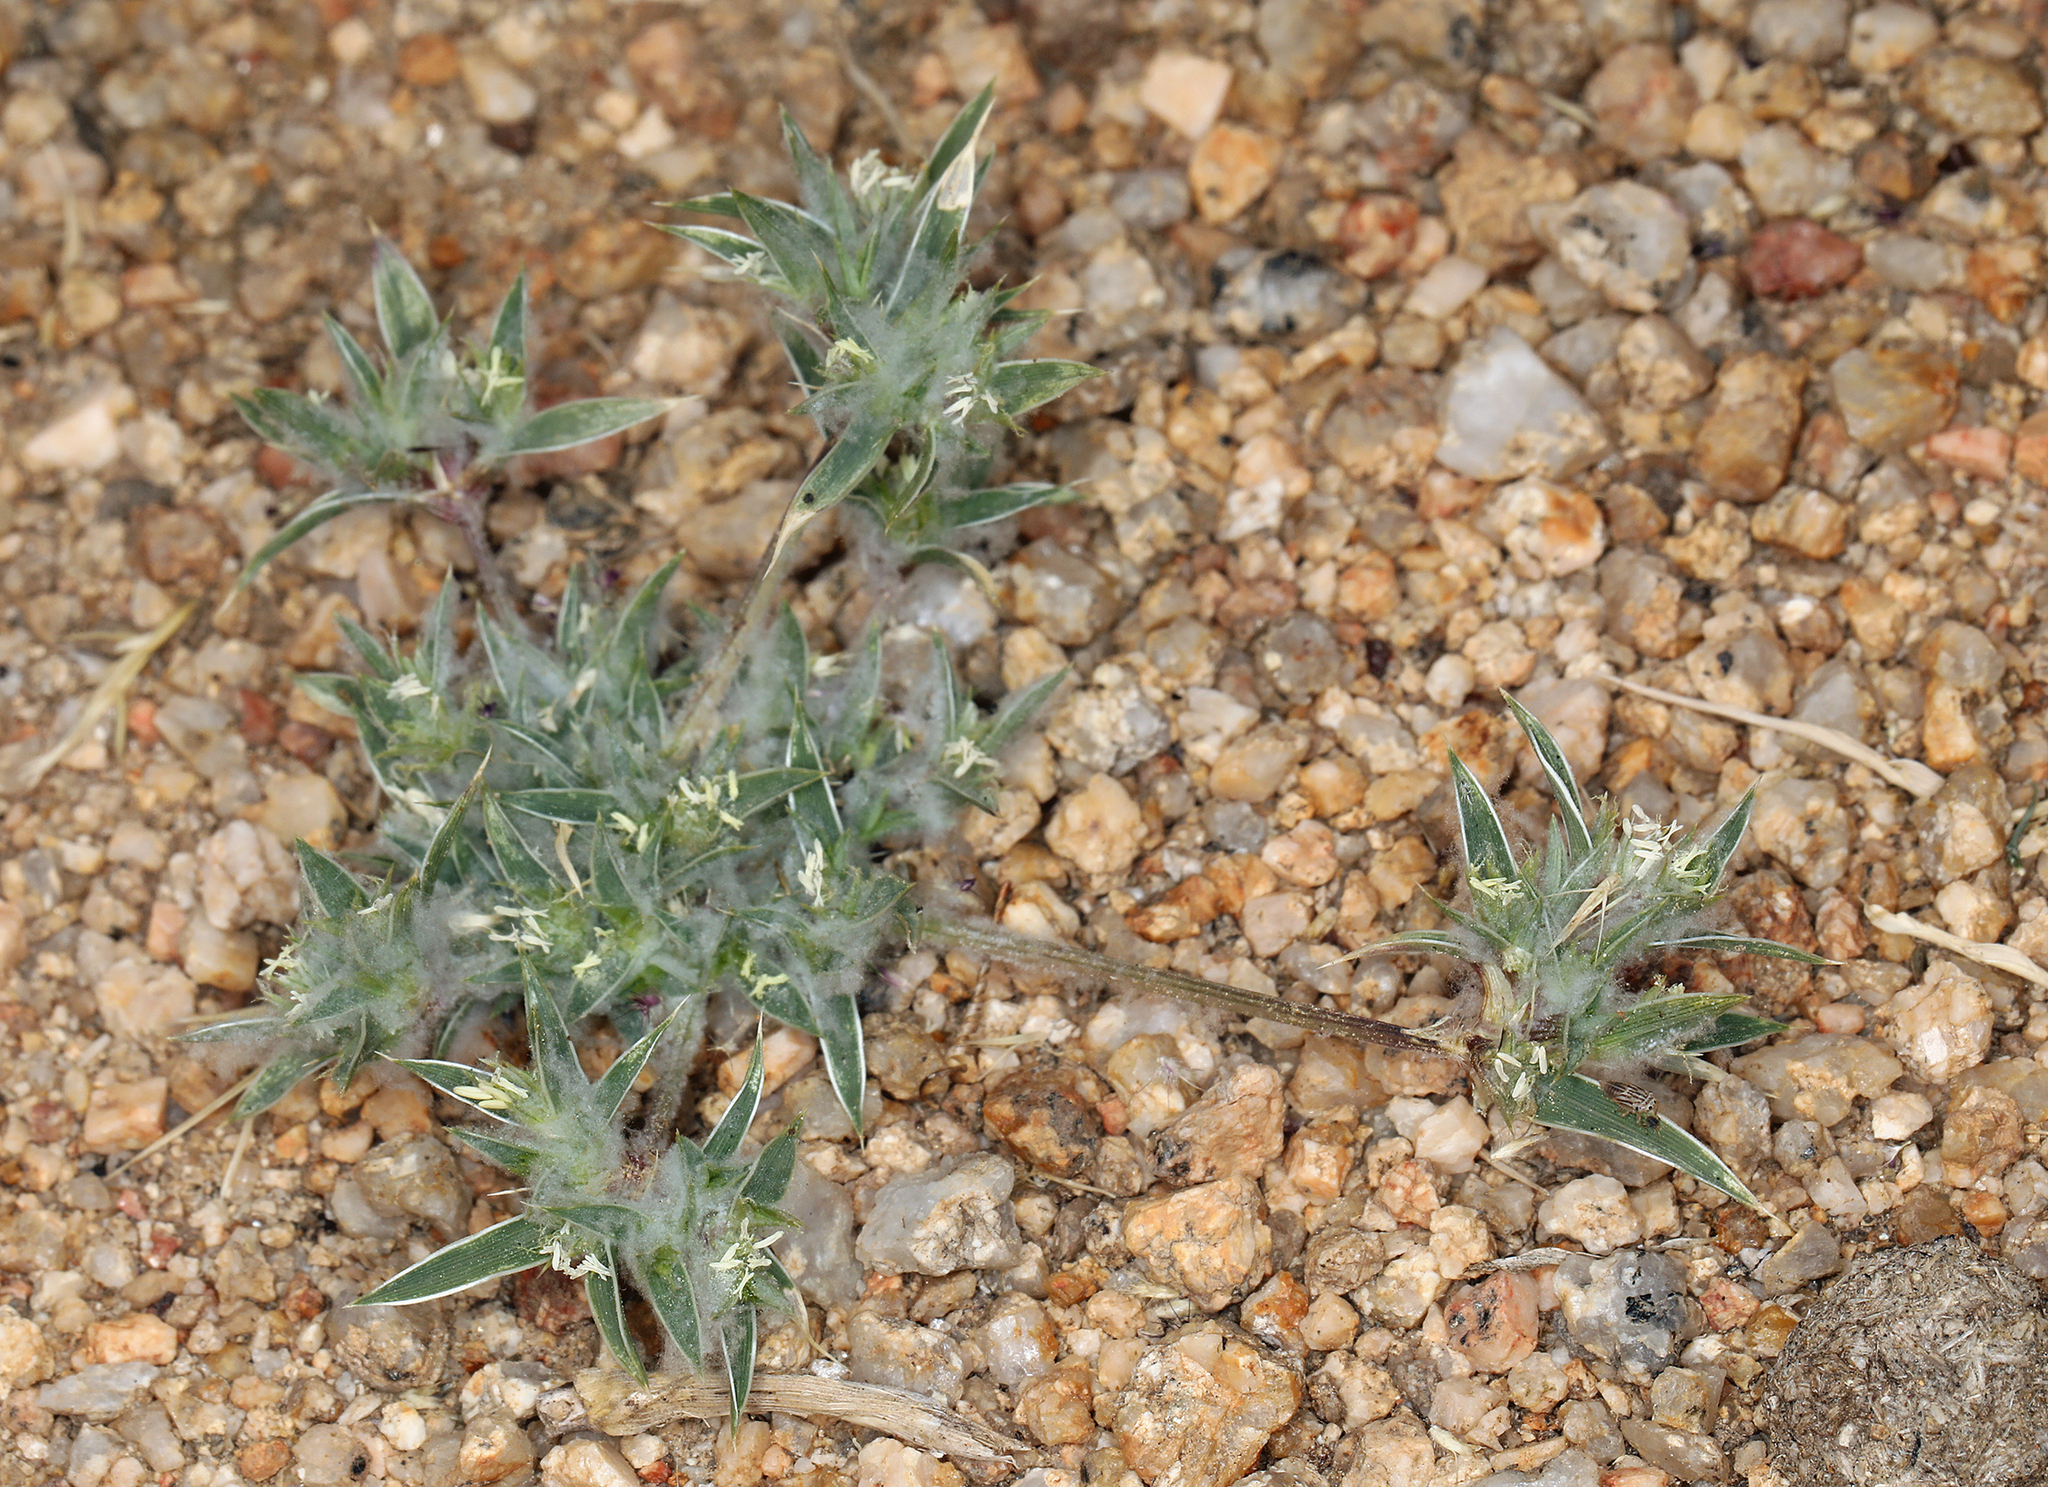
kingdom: Plantae
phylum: Tracheophyta
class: Liliopsida
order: Poales
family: Poaceae
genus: Munroa
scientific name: Munroa squarrosa
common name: False buffalo grass
